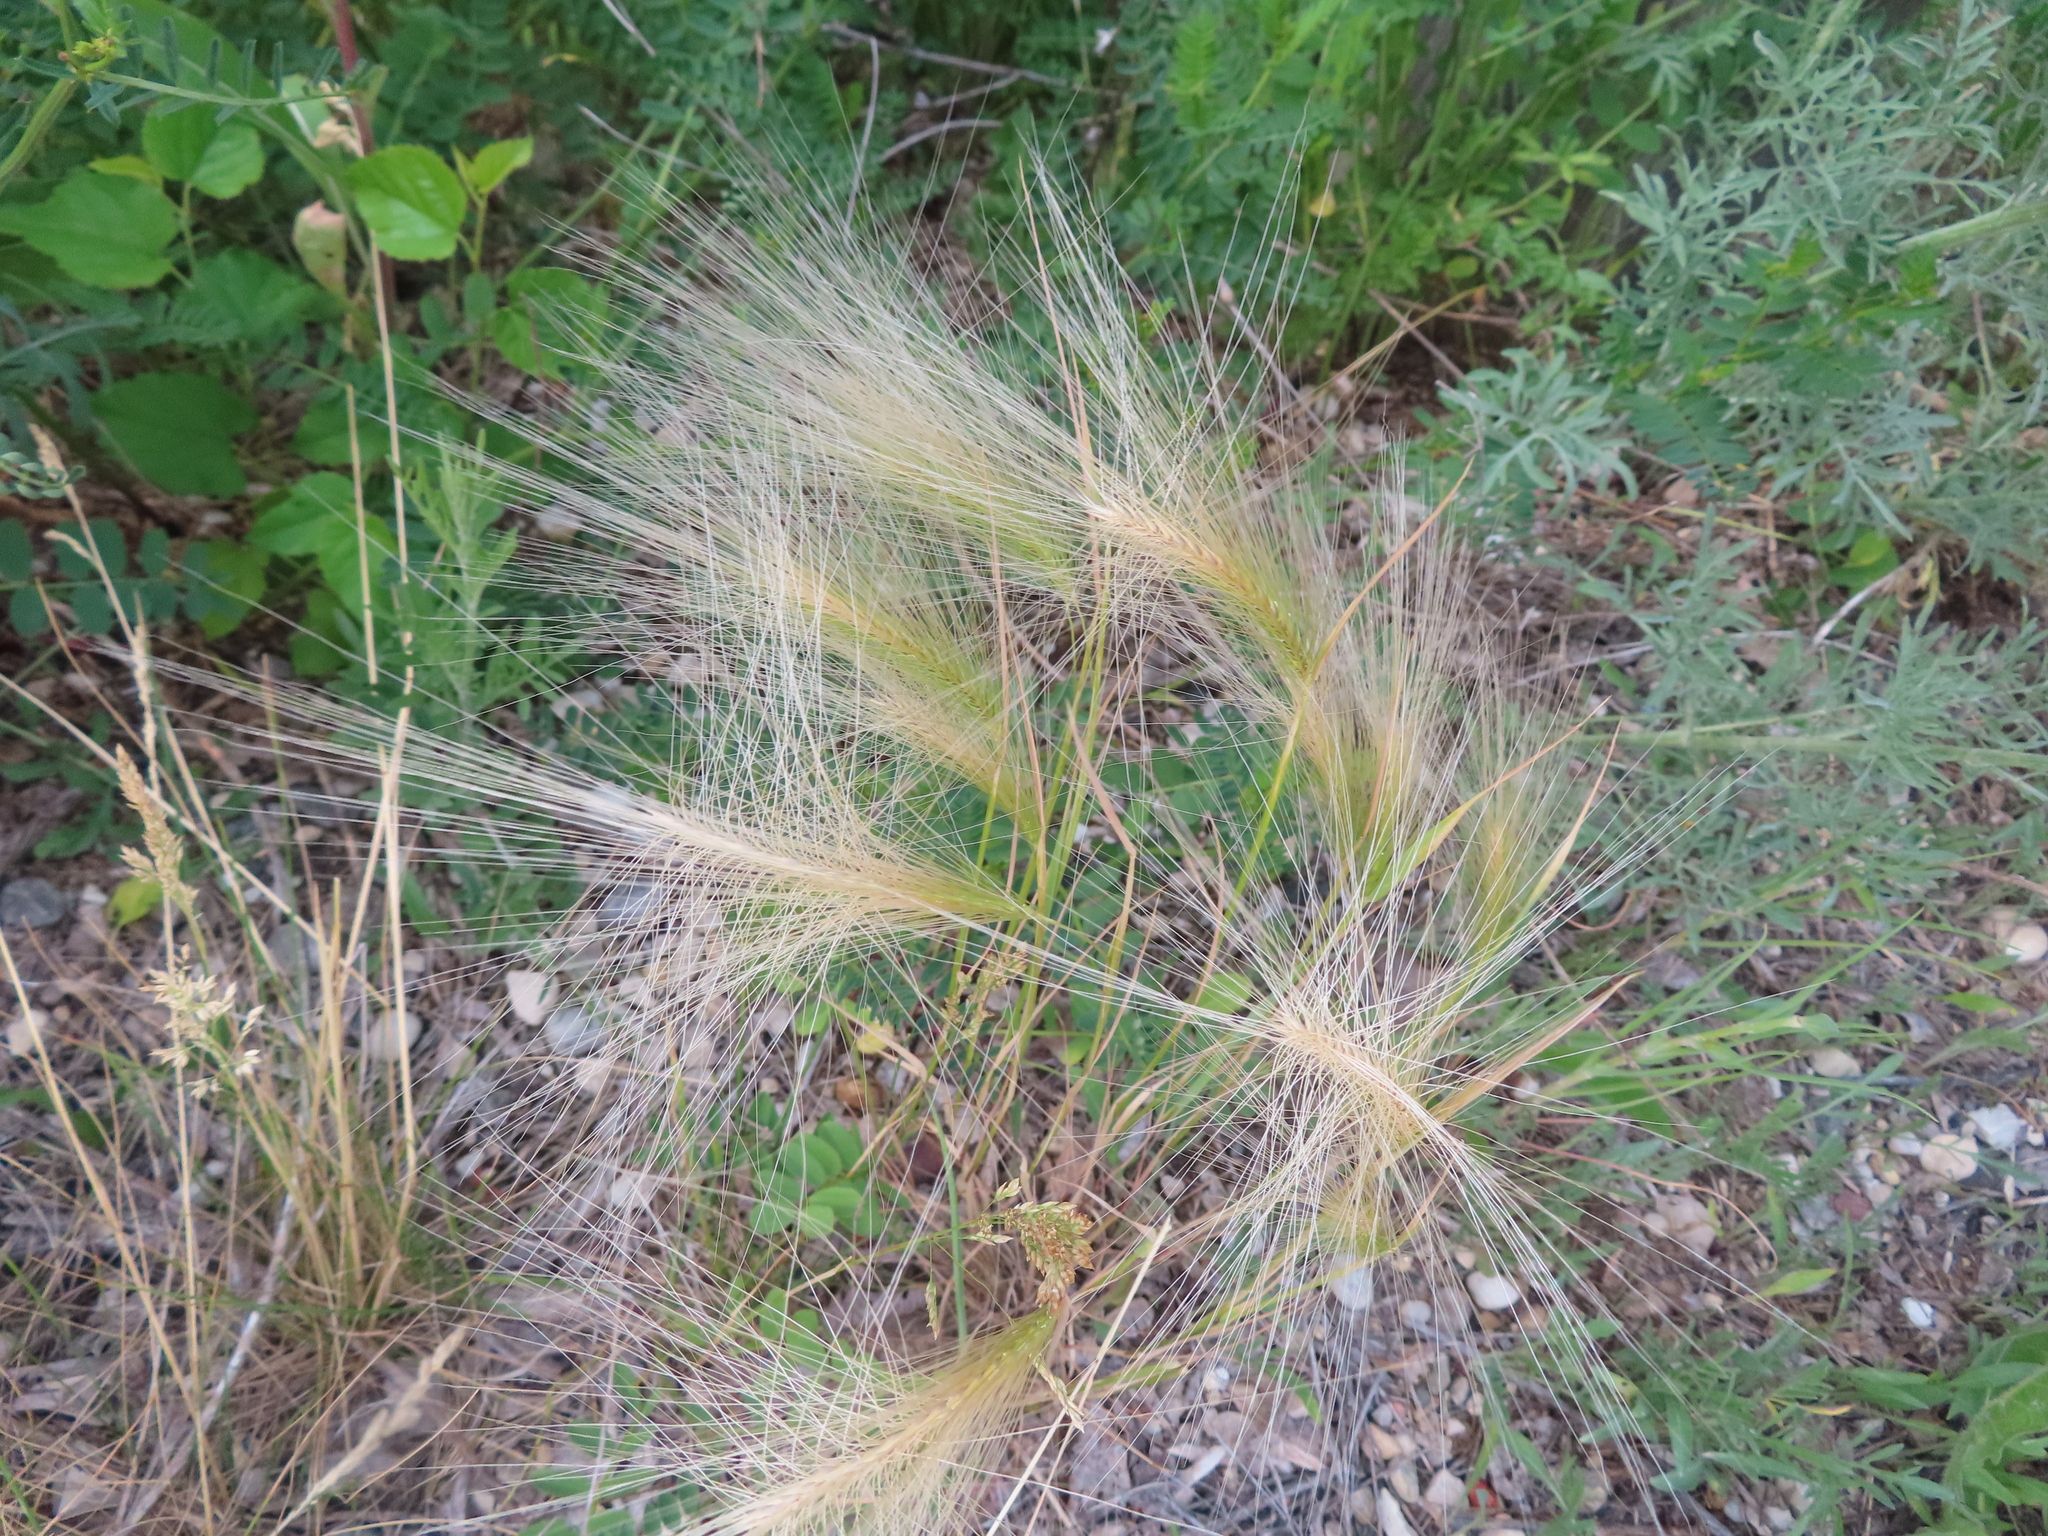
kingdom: Plantae
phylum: Tracheophyta
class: Liliopsida
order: Poales
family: Poaceae
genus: Hordeum
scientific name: Hordeum jubatum
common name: Foxtail barley
